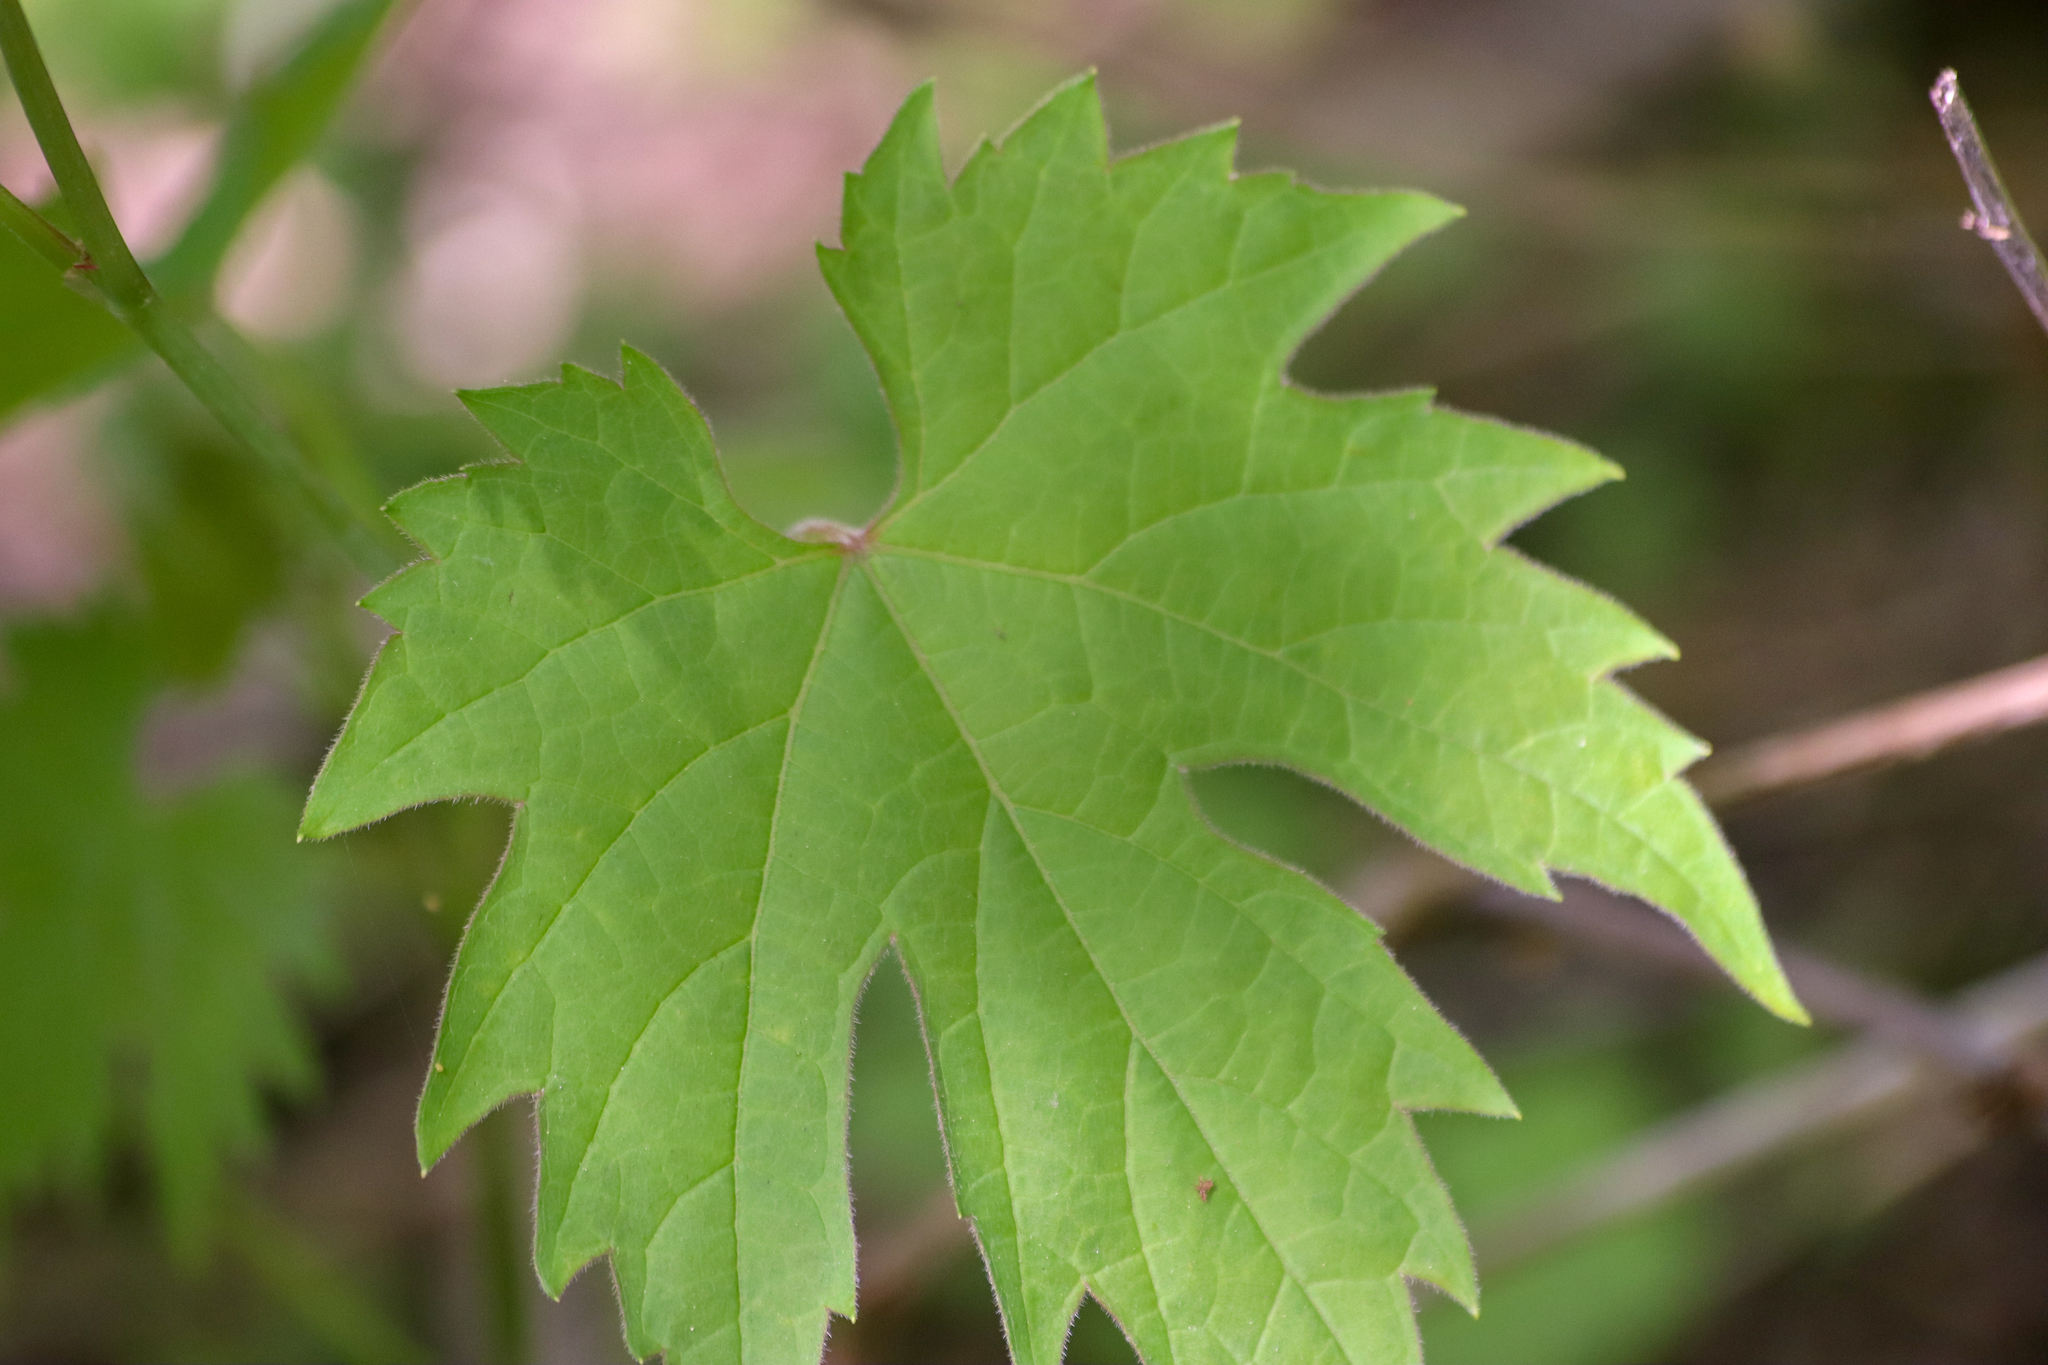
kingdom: Plantae
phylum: Tracheophyta
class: Magnoliopsida
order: Vitales
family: Vitaceae
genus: Vitis
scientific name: Vitis riparia
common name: Frost grape
